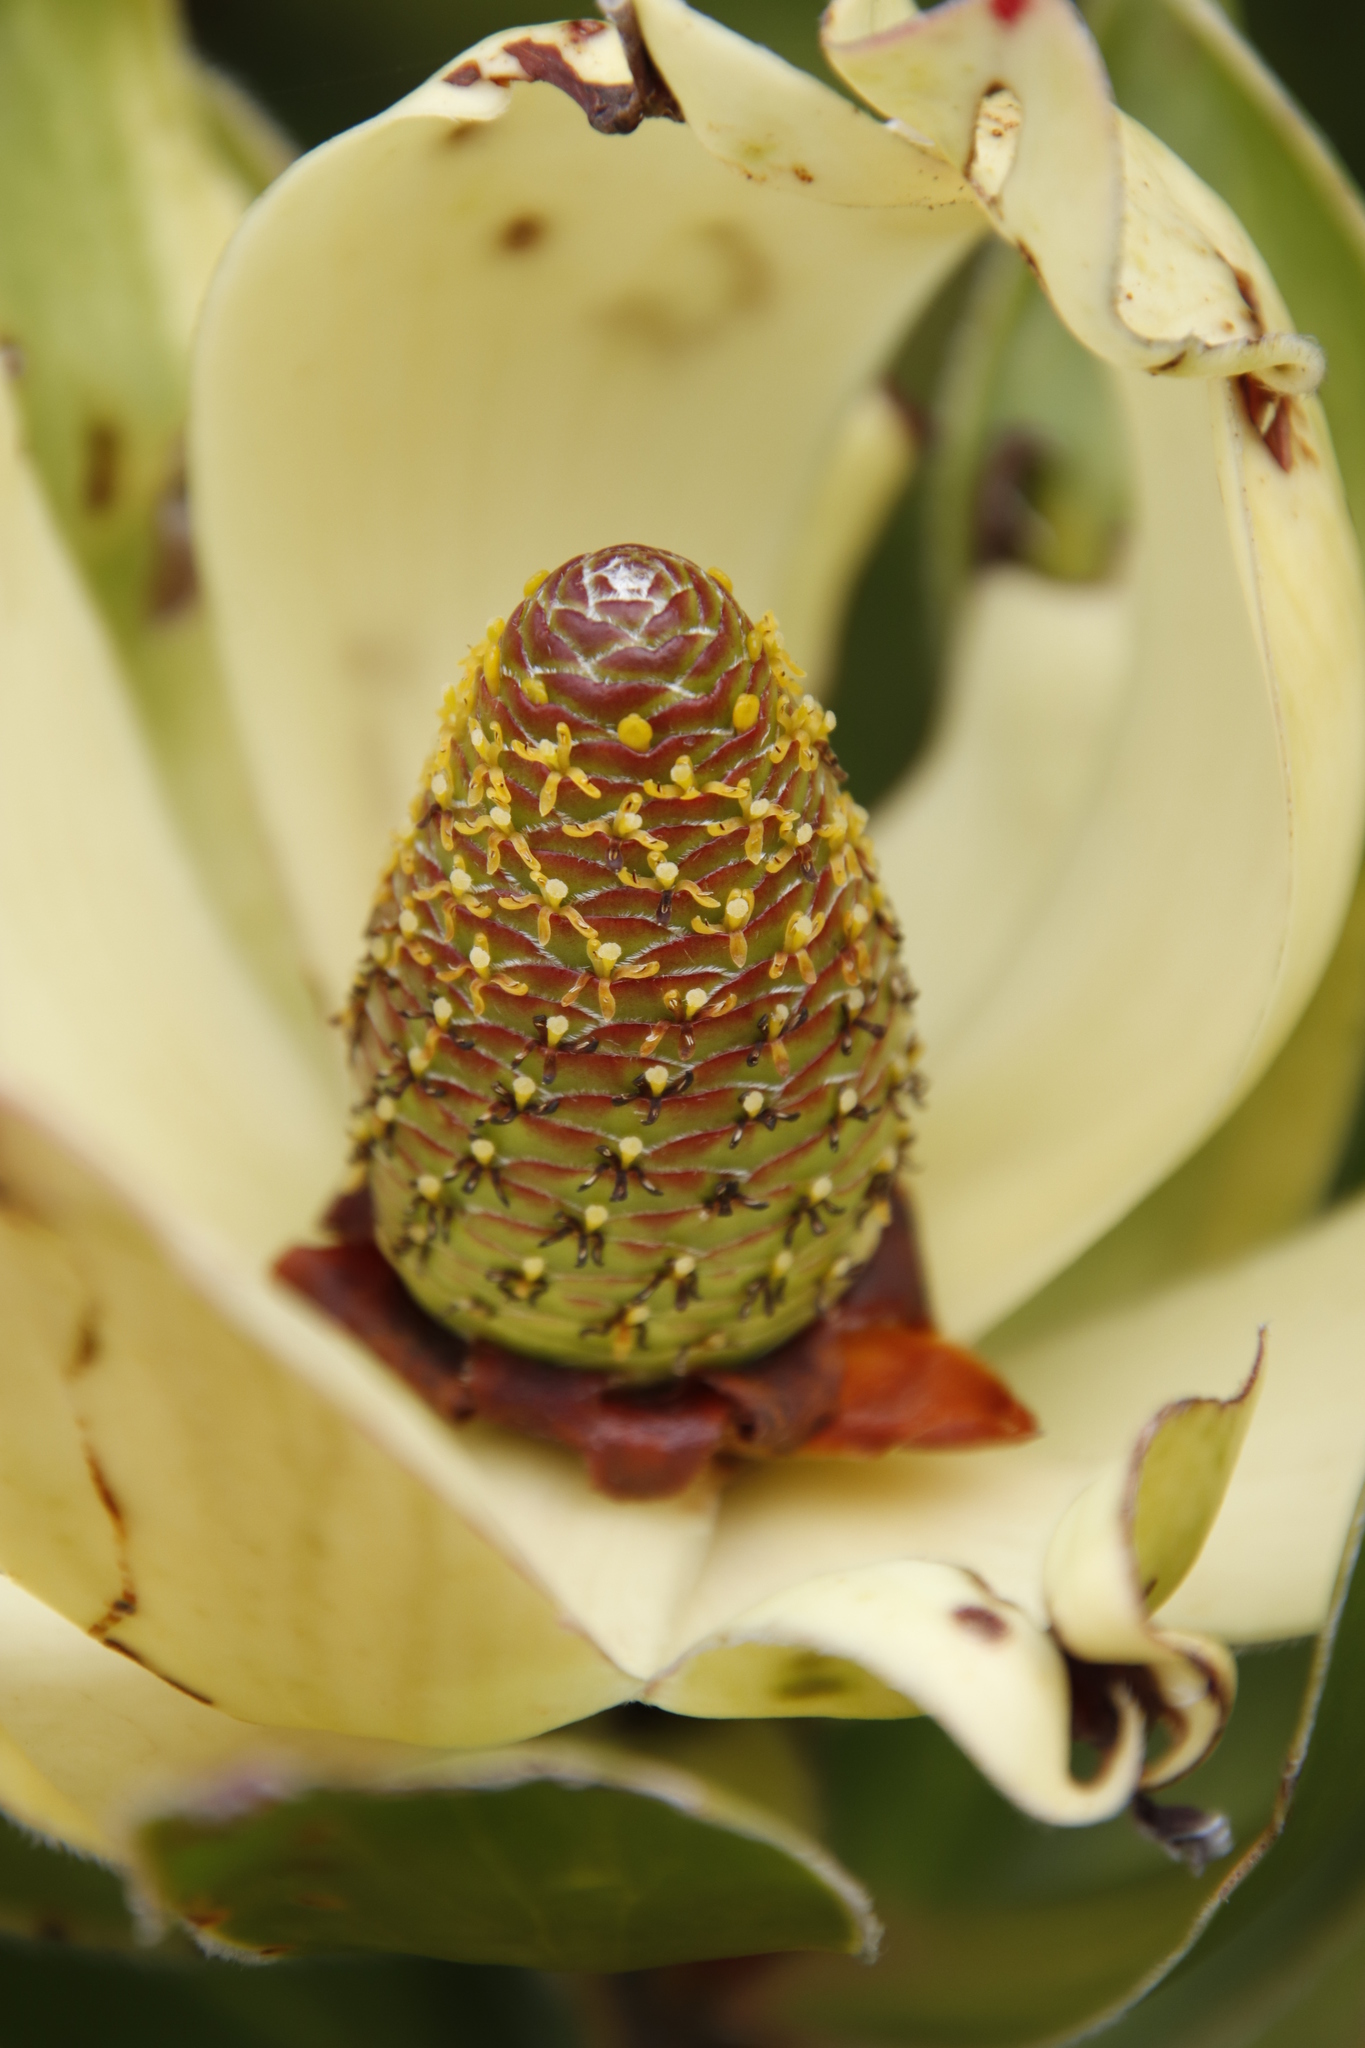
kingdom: Plantae
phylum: Tracheophyta
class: Magnoliopsida
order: Proteales
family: Proteaceae
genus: Leucadendron
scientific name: Leucadendron strobilinum
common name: Mountain rose
